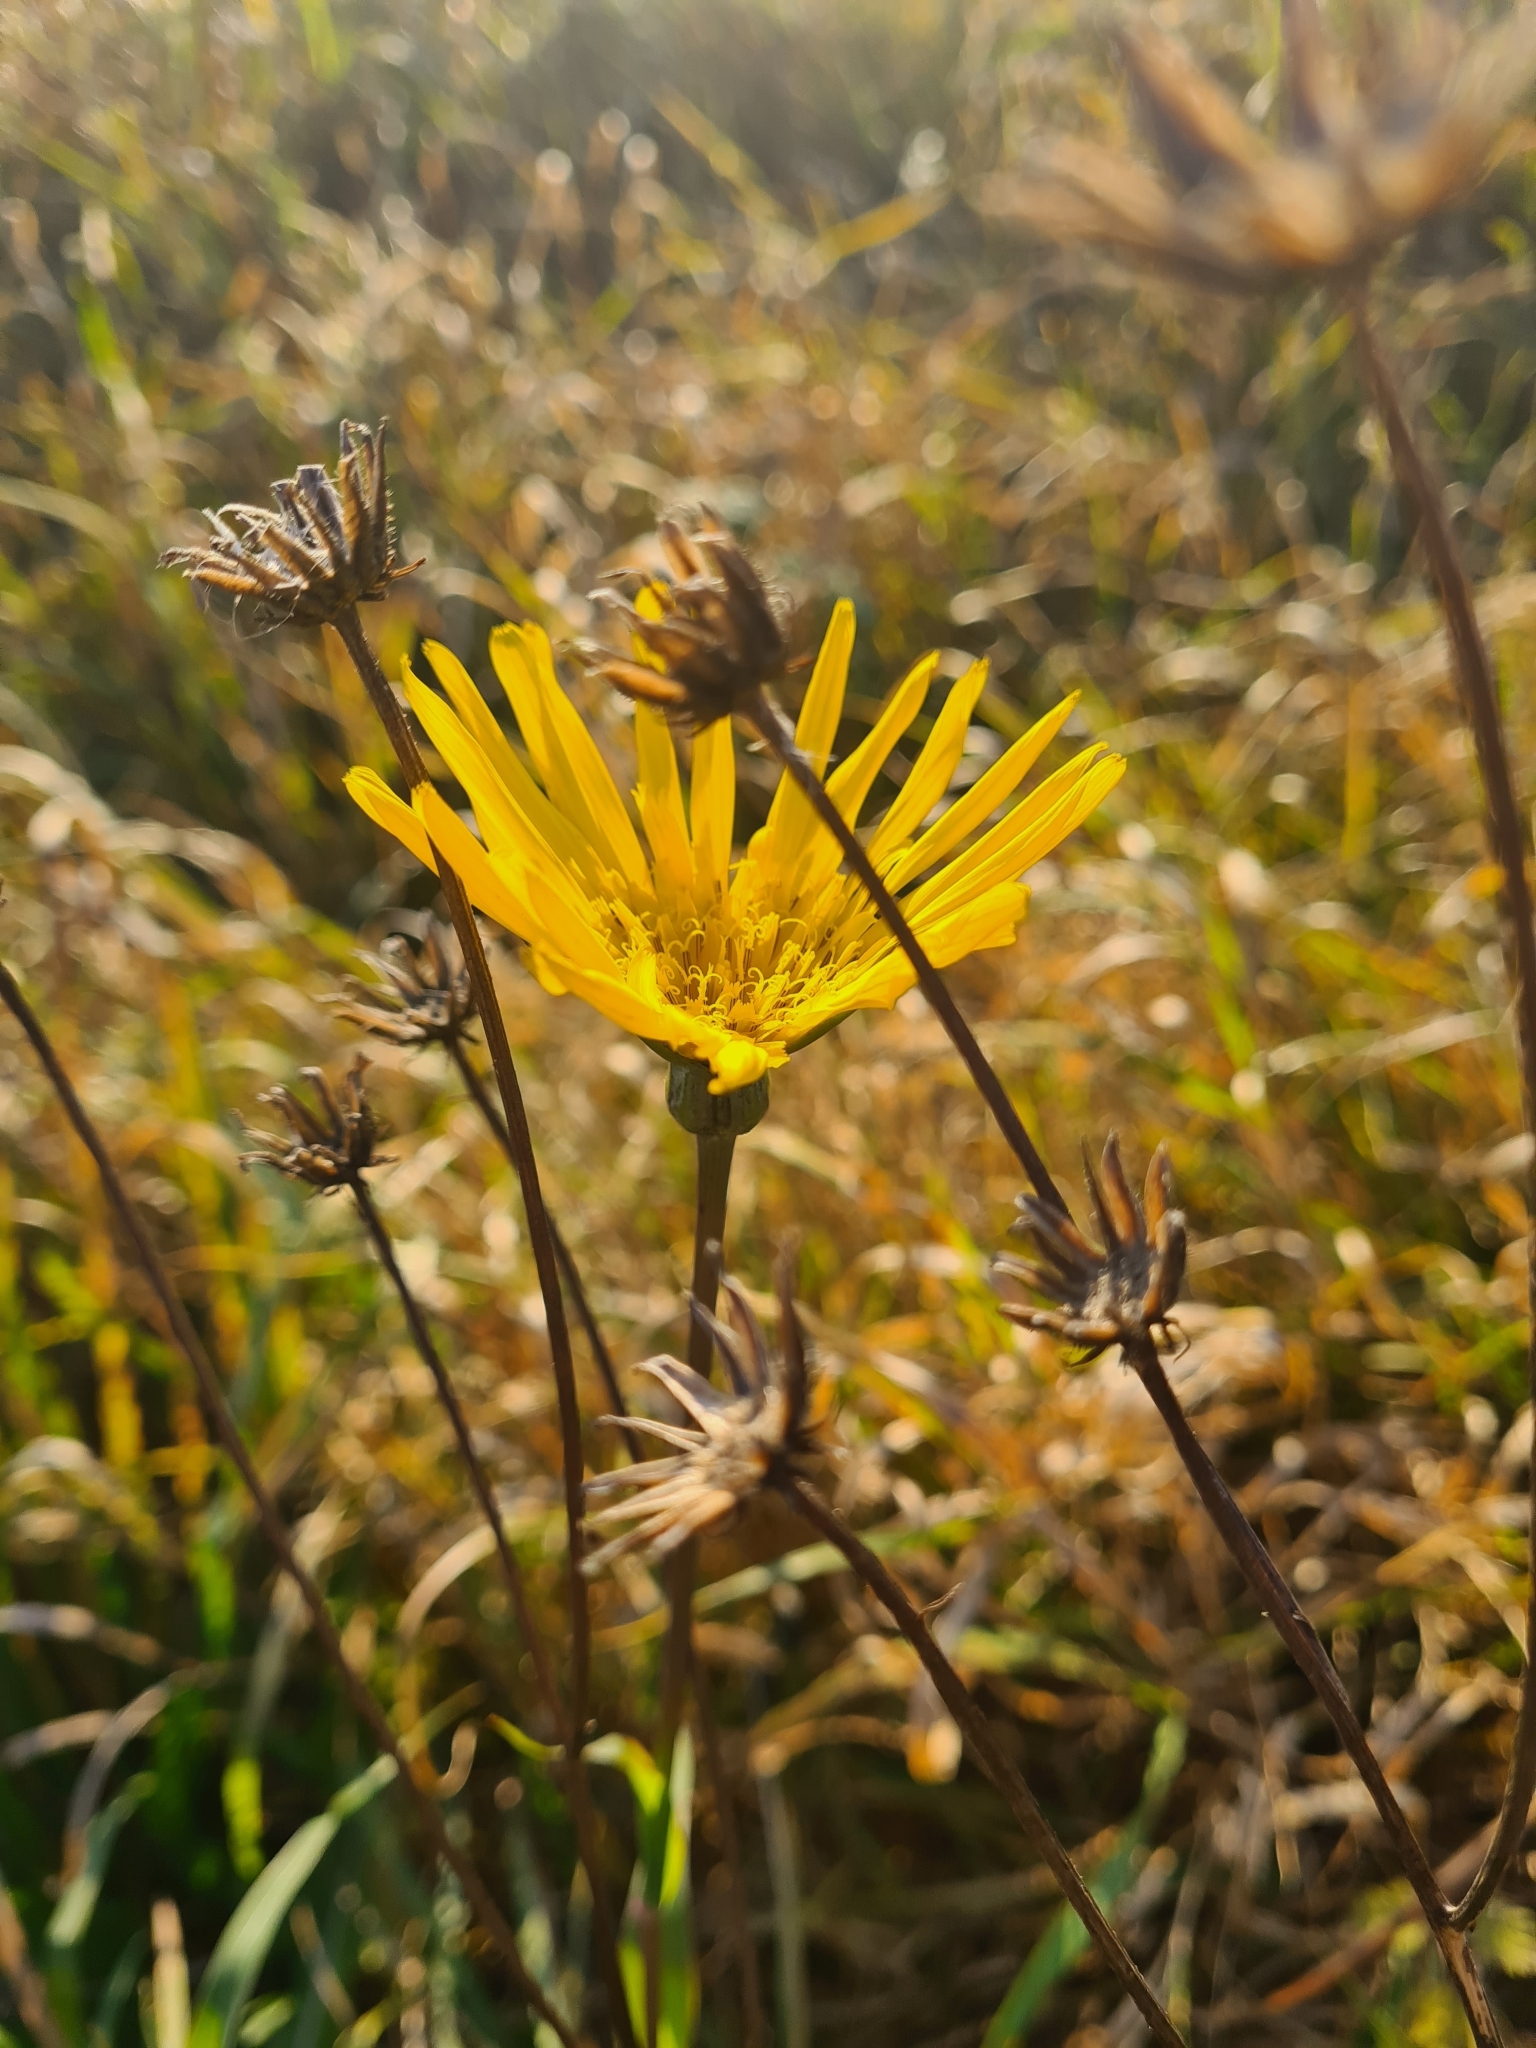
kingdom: Plantae
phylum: Tracheophyta
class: Magnoliopsida
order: Asterales
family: Asteraceae
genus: Tragopogon
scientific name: Tragopogon orientalis
